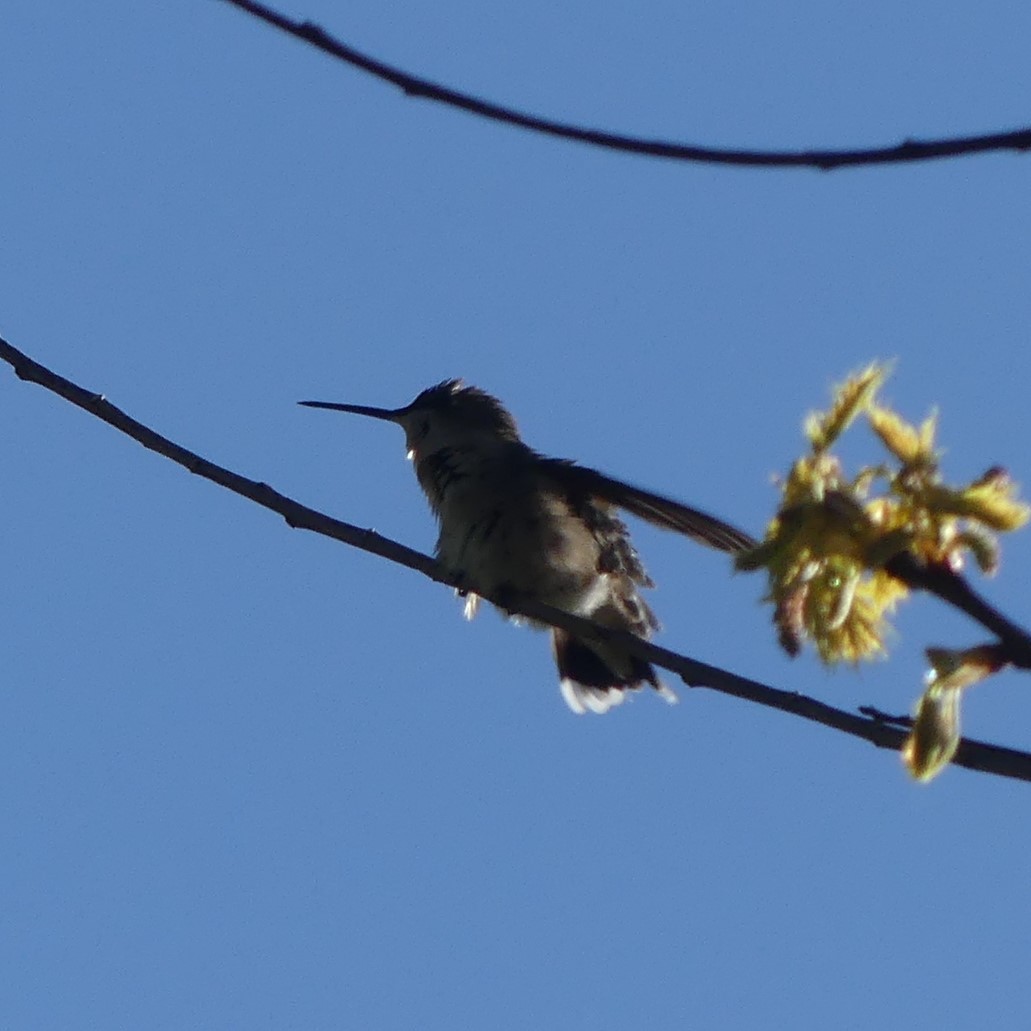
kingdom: Animalia
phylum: Chordata
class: Aves
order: Apodiformes
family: Trochilidae
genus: Archilochus
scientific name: Archilochus colubris
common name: Ruby-throated hummingbird
